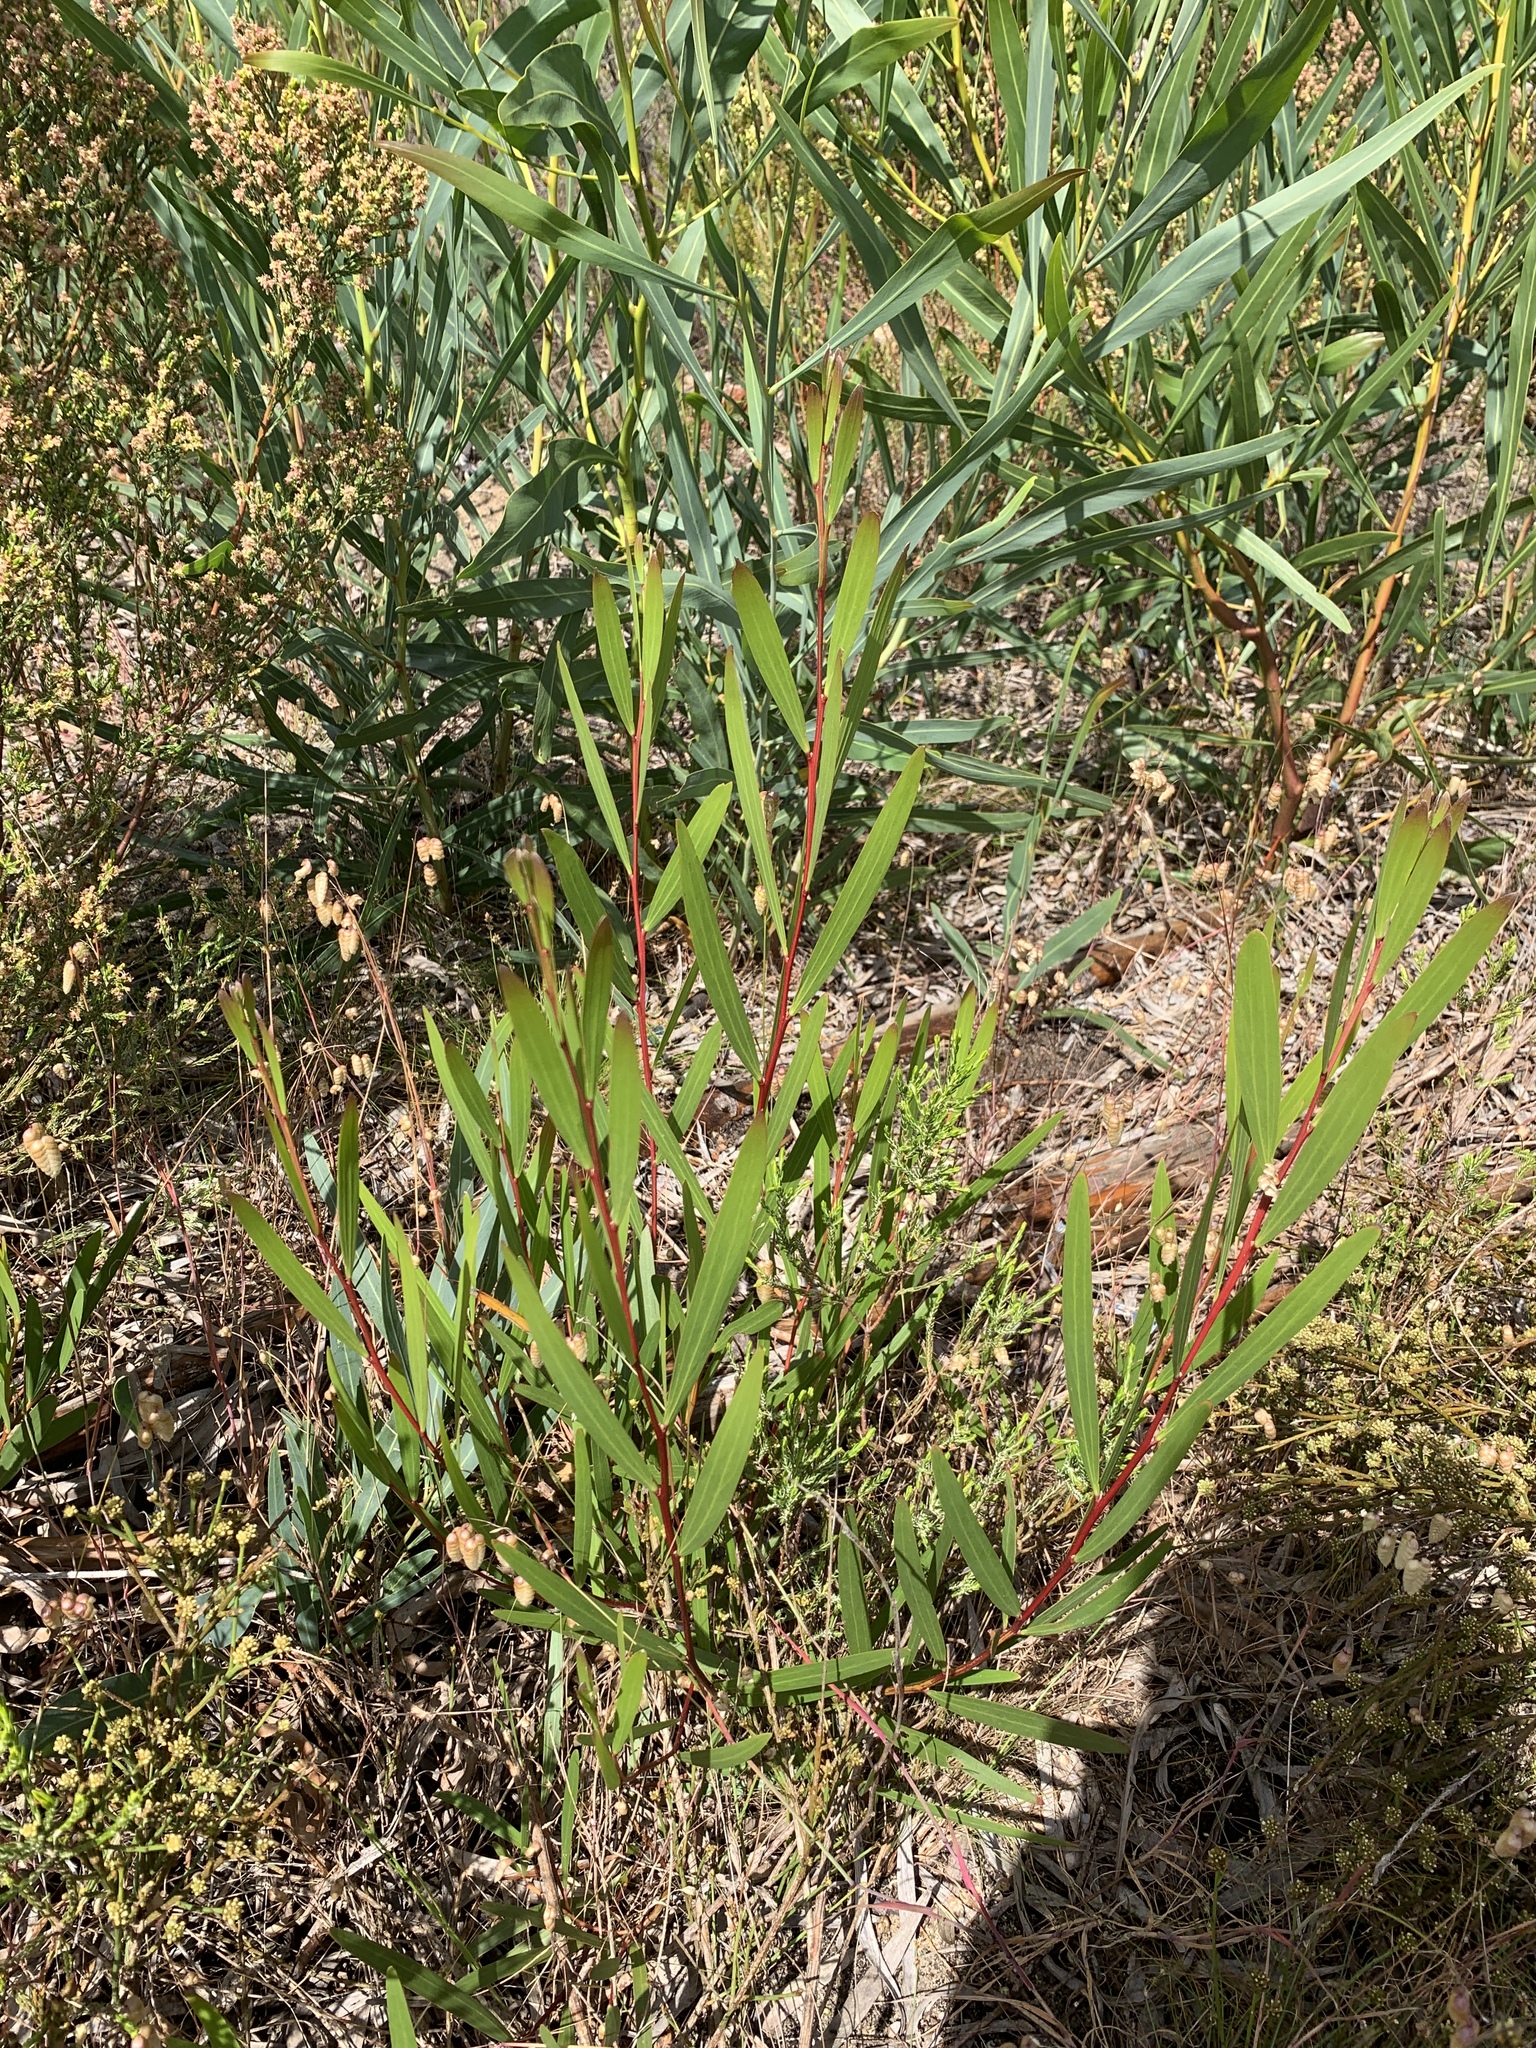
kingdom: Plantae
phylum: Tracheophyta
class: Magnoliopsida
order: Fabales
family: Fabaceae
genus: Acacia
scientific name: Acacia longifolia
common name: Sydney golden wattle
